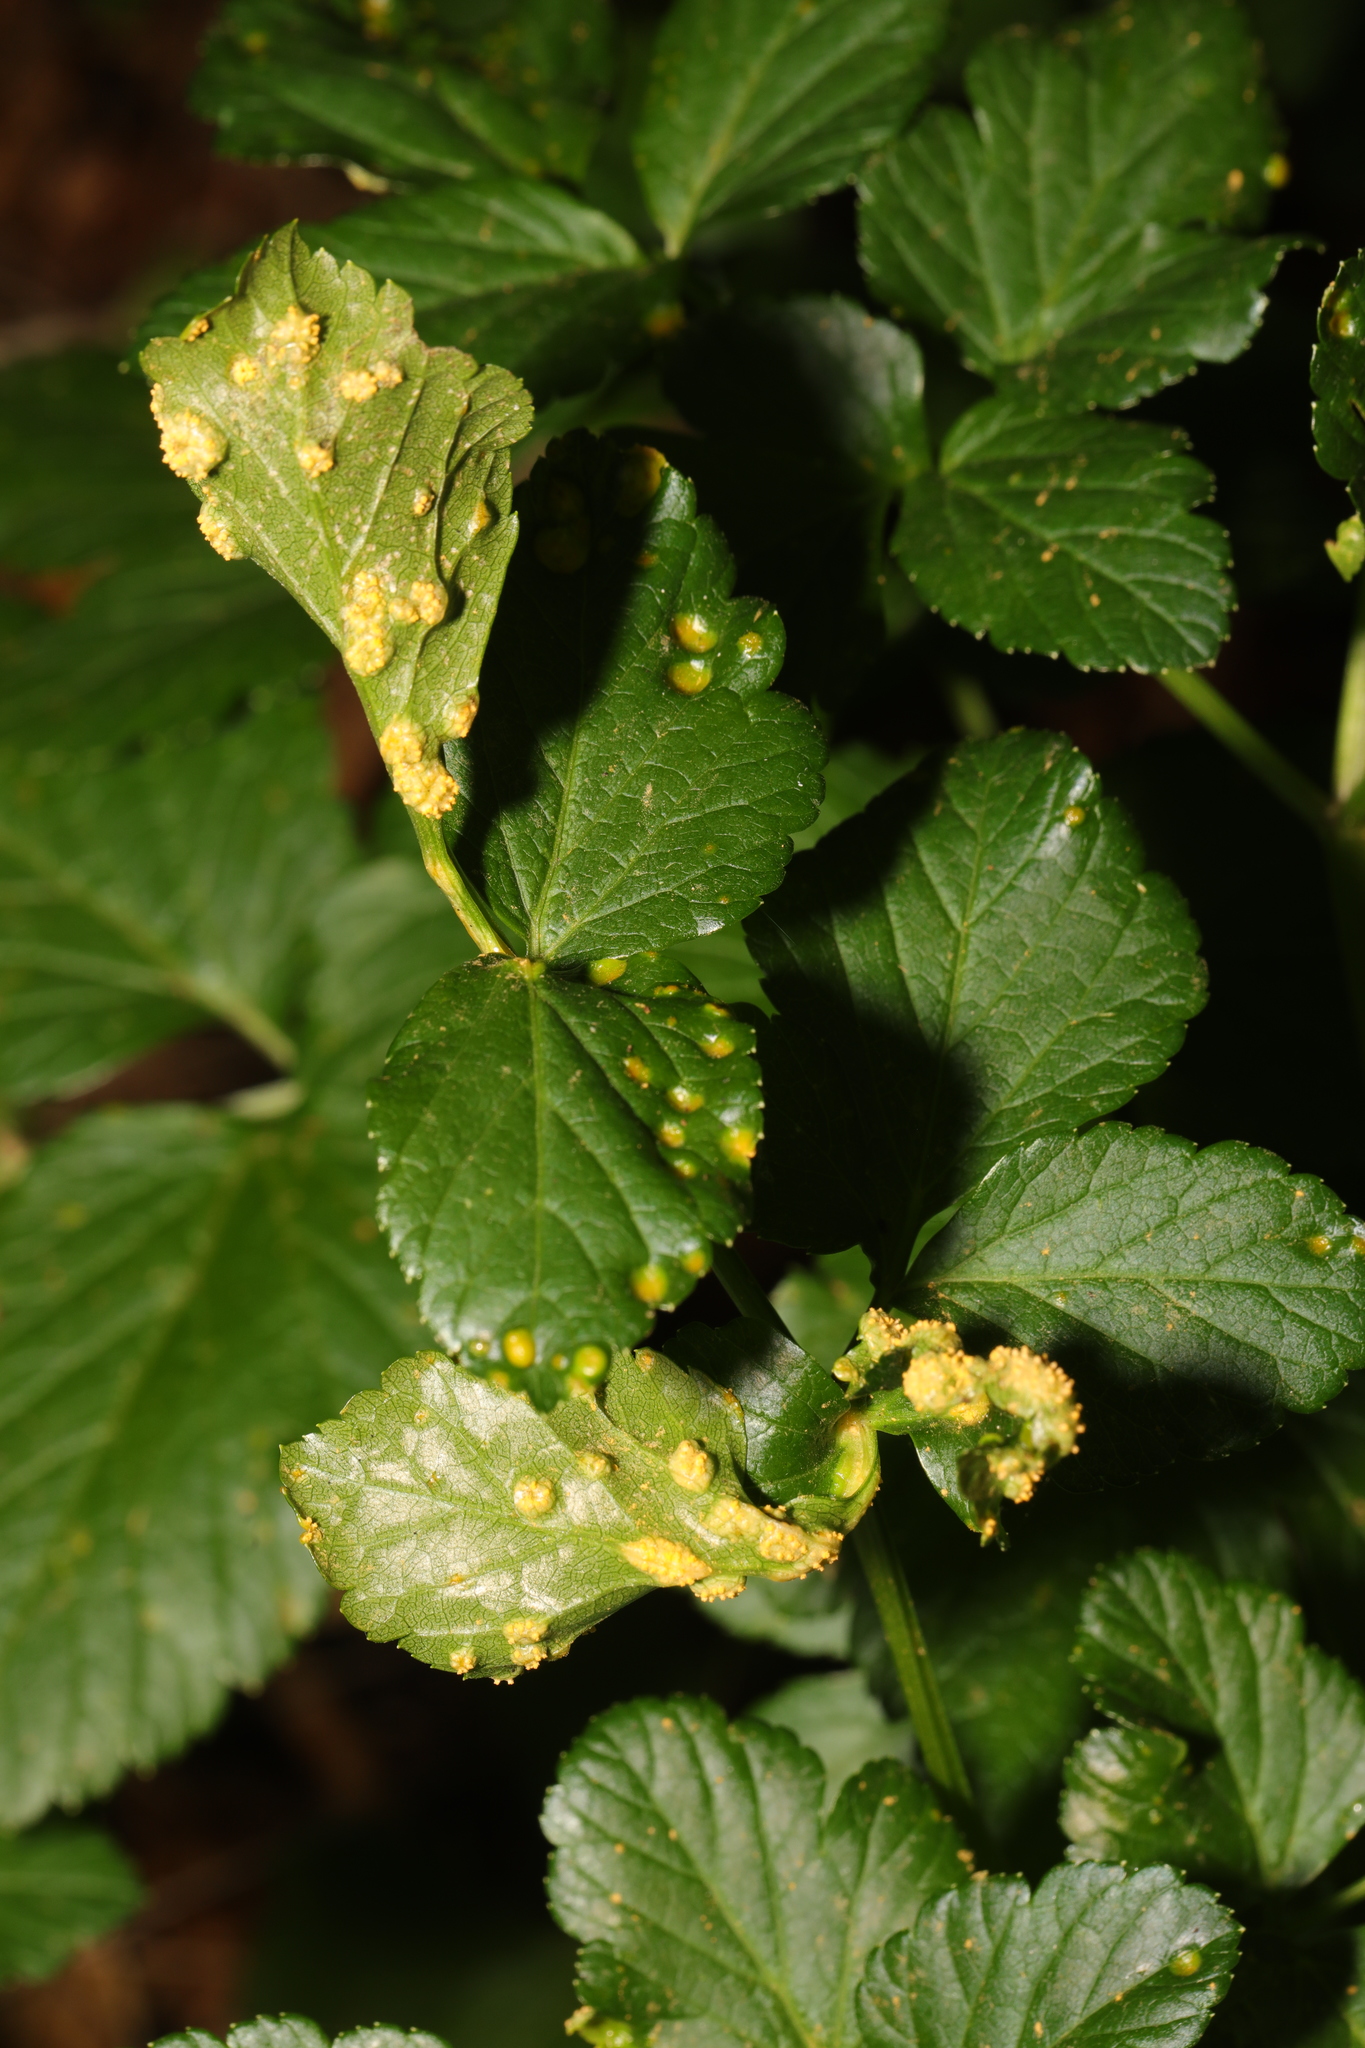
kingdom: Fungi
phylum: Basidiomycota
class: Pucciniomycetes
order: Pucciniales
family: Pucciniaceae
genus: Puccinia
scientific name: Puccinia smyrnii
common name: Alexanders rust
